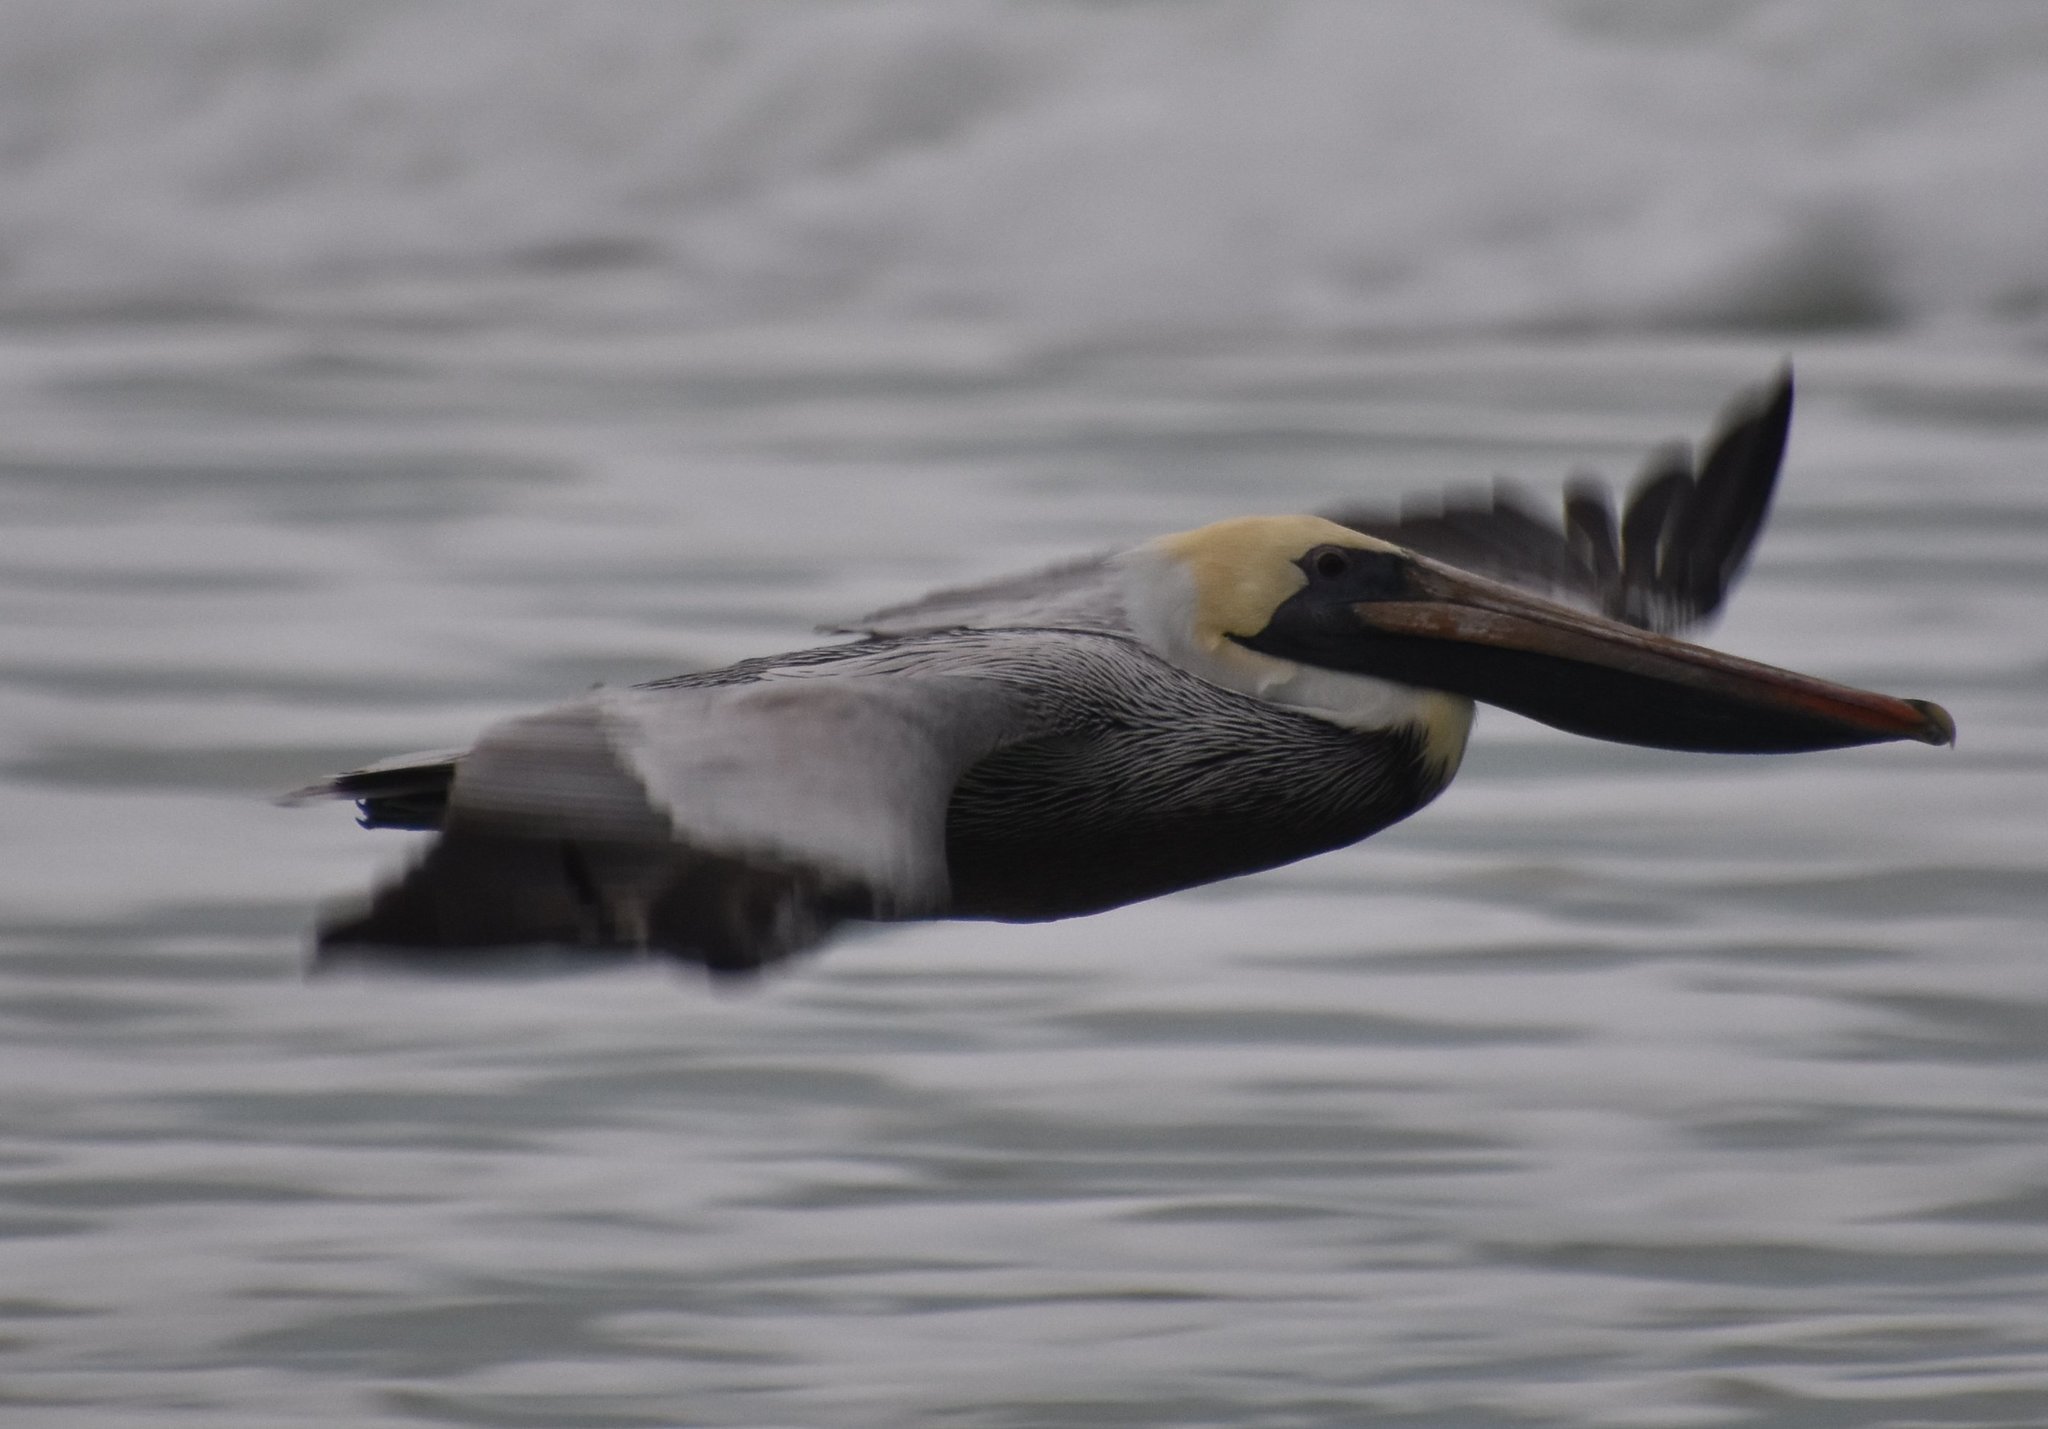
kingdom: Animalia
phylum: Chordata
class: Aves
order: Pelecaniformes
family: Pelecanidae
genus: Pelecanus
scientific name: Pelecanus occidentalis
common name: Brown pelican
